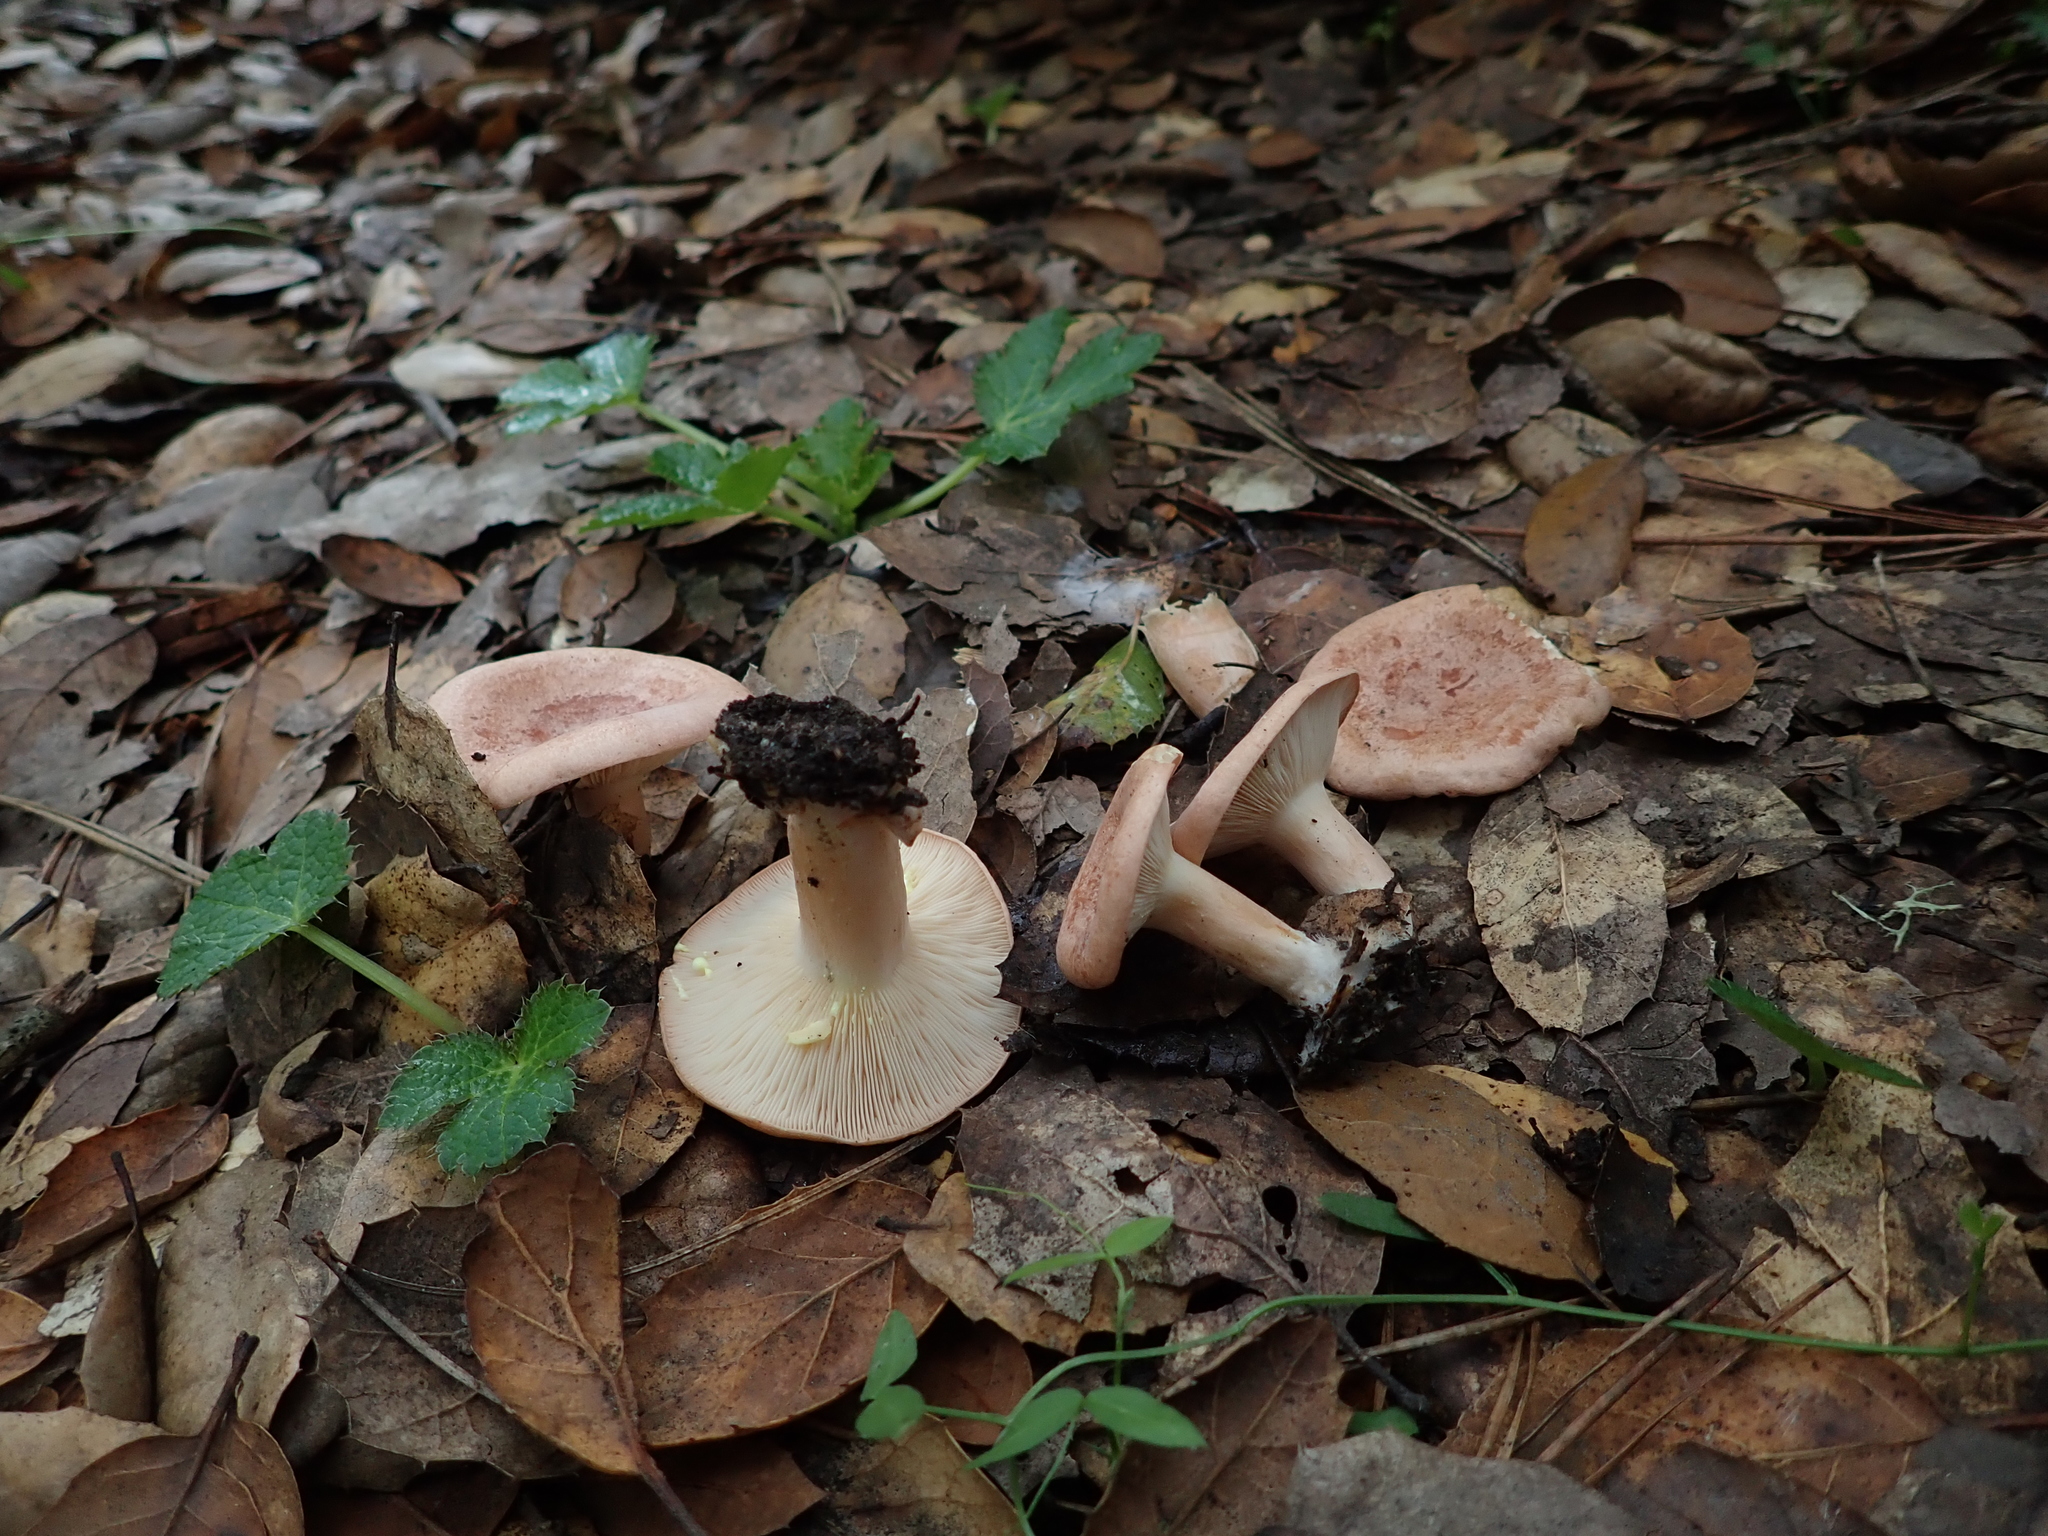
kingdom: Fungi
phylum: Basidiomycota
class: Agaricomycetes
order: Russulales
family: Russulaceae
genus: Lactarius
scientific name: Lactarius xanthogalactus
